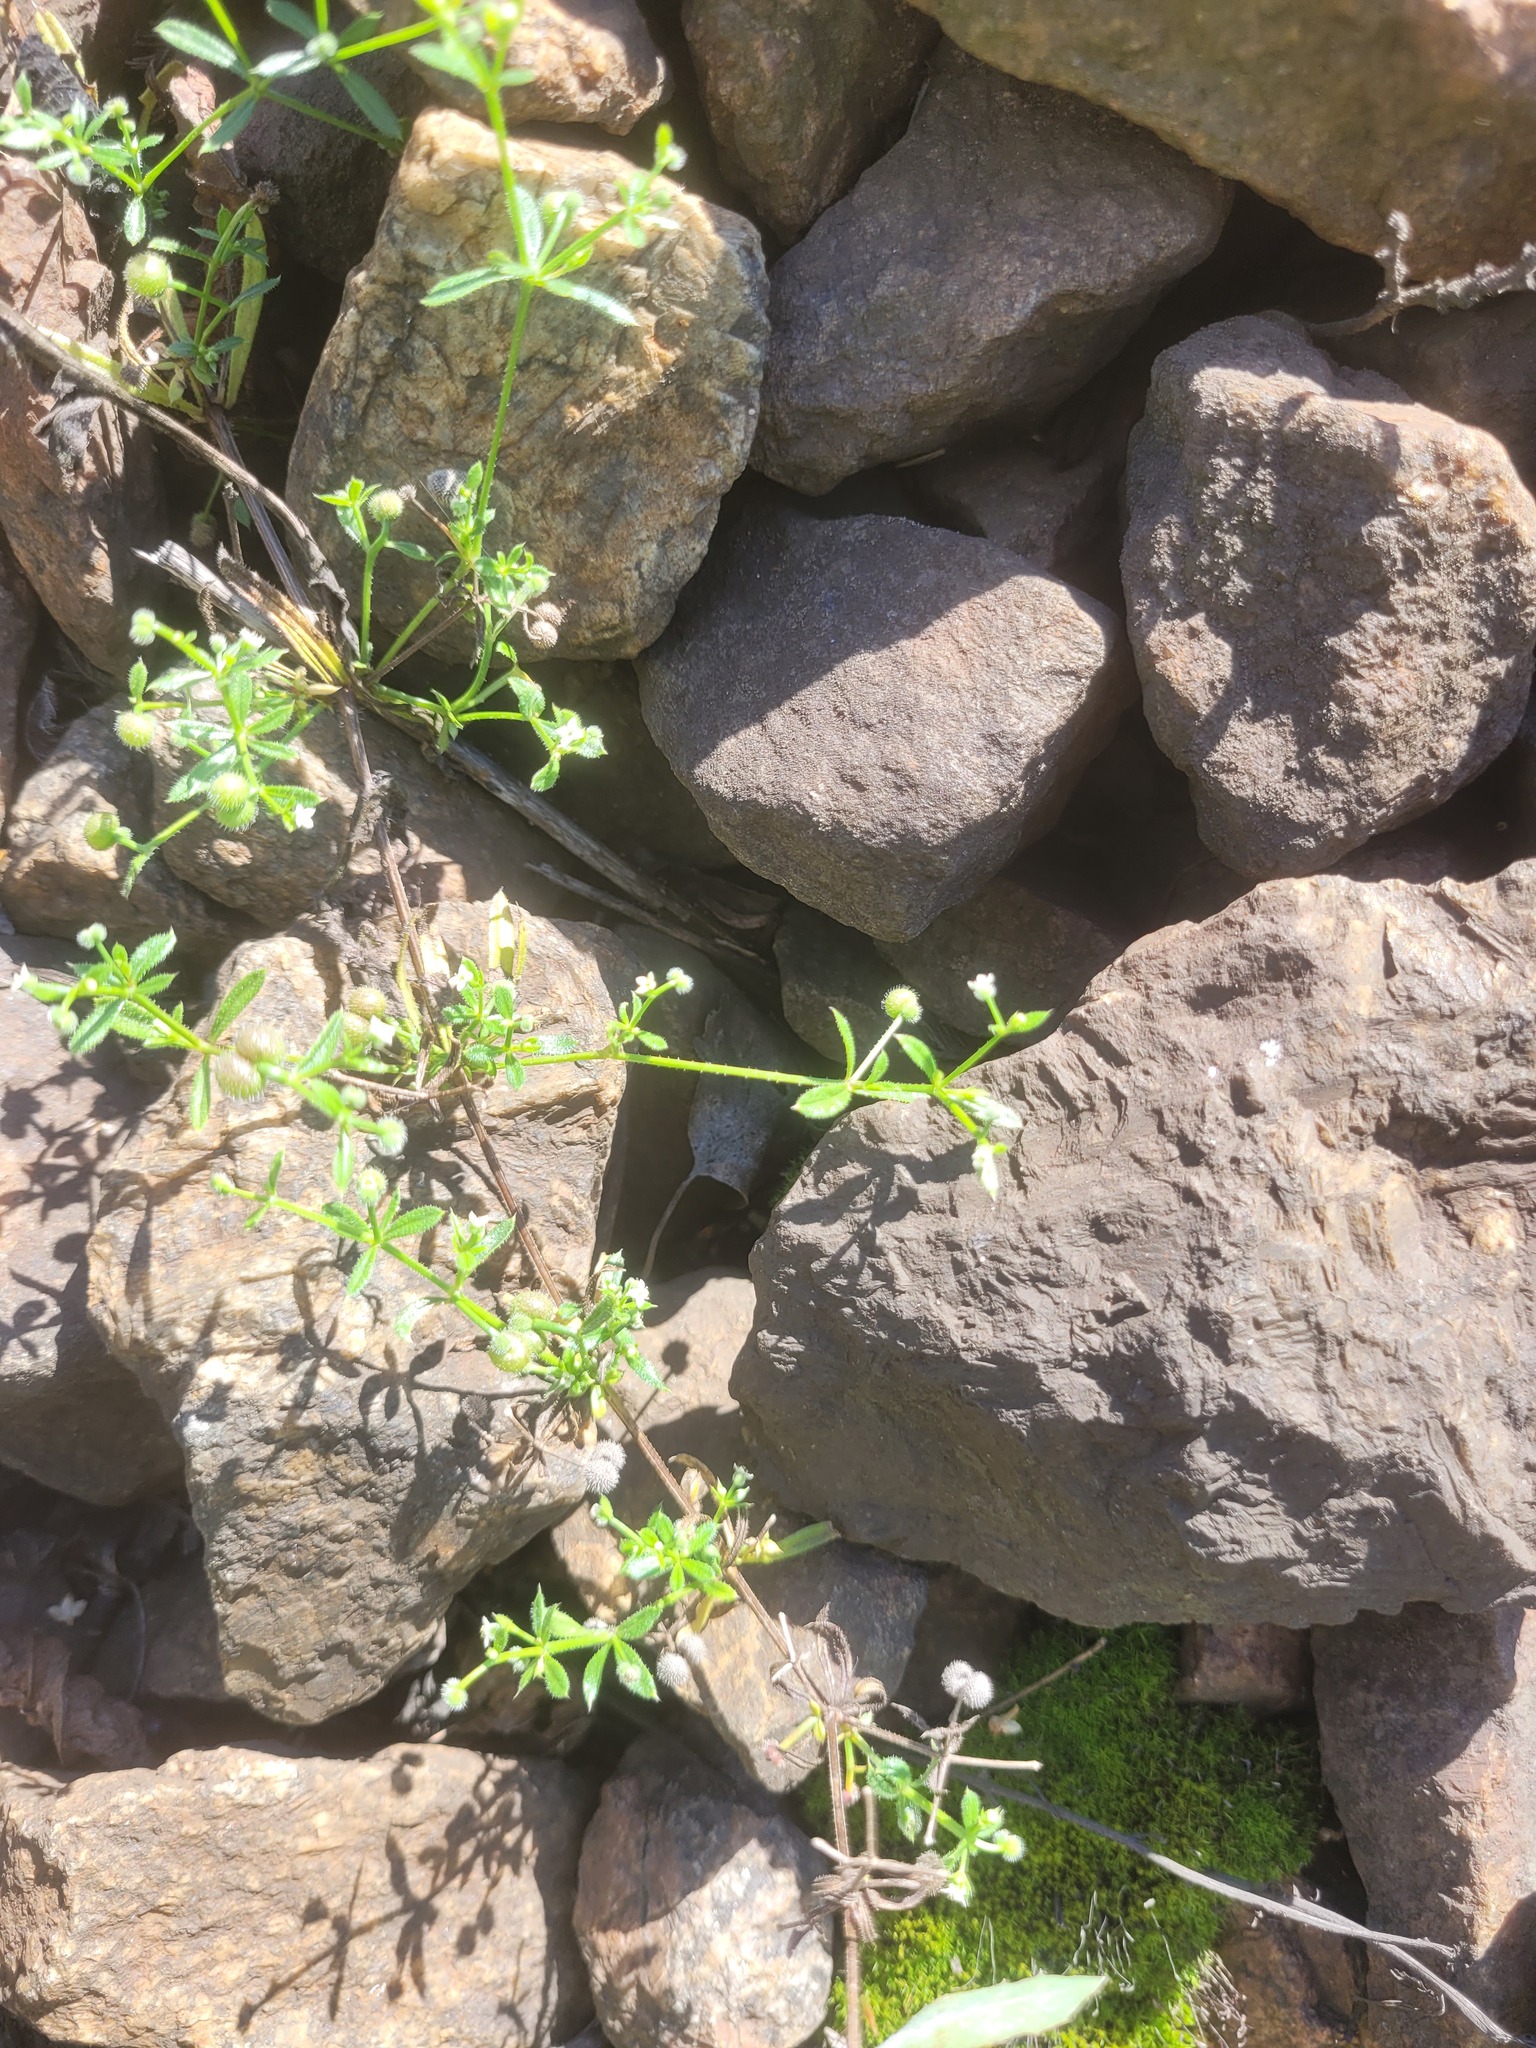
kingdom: Plantae
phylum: Tracheophyta
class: Magnoliopsida
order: Gentianales
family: Rubiaceae
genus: Galium
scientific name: Galium aparine
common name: Cleavers
